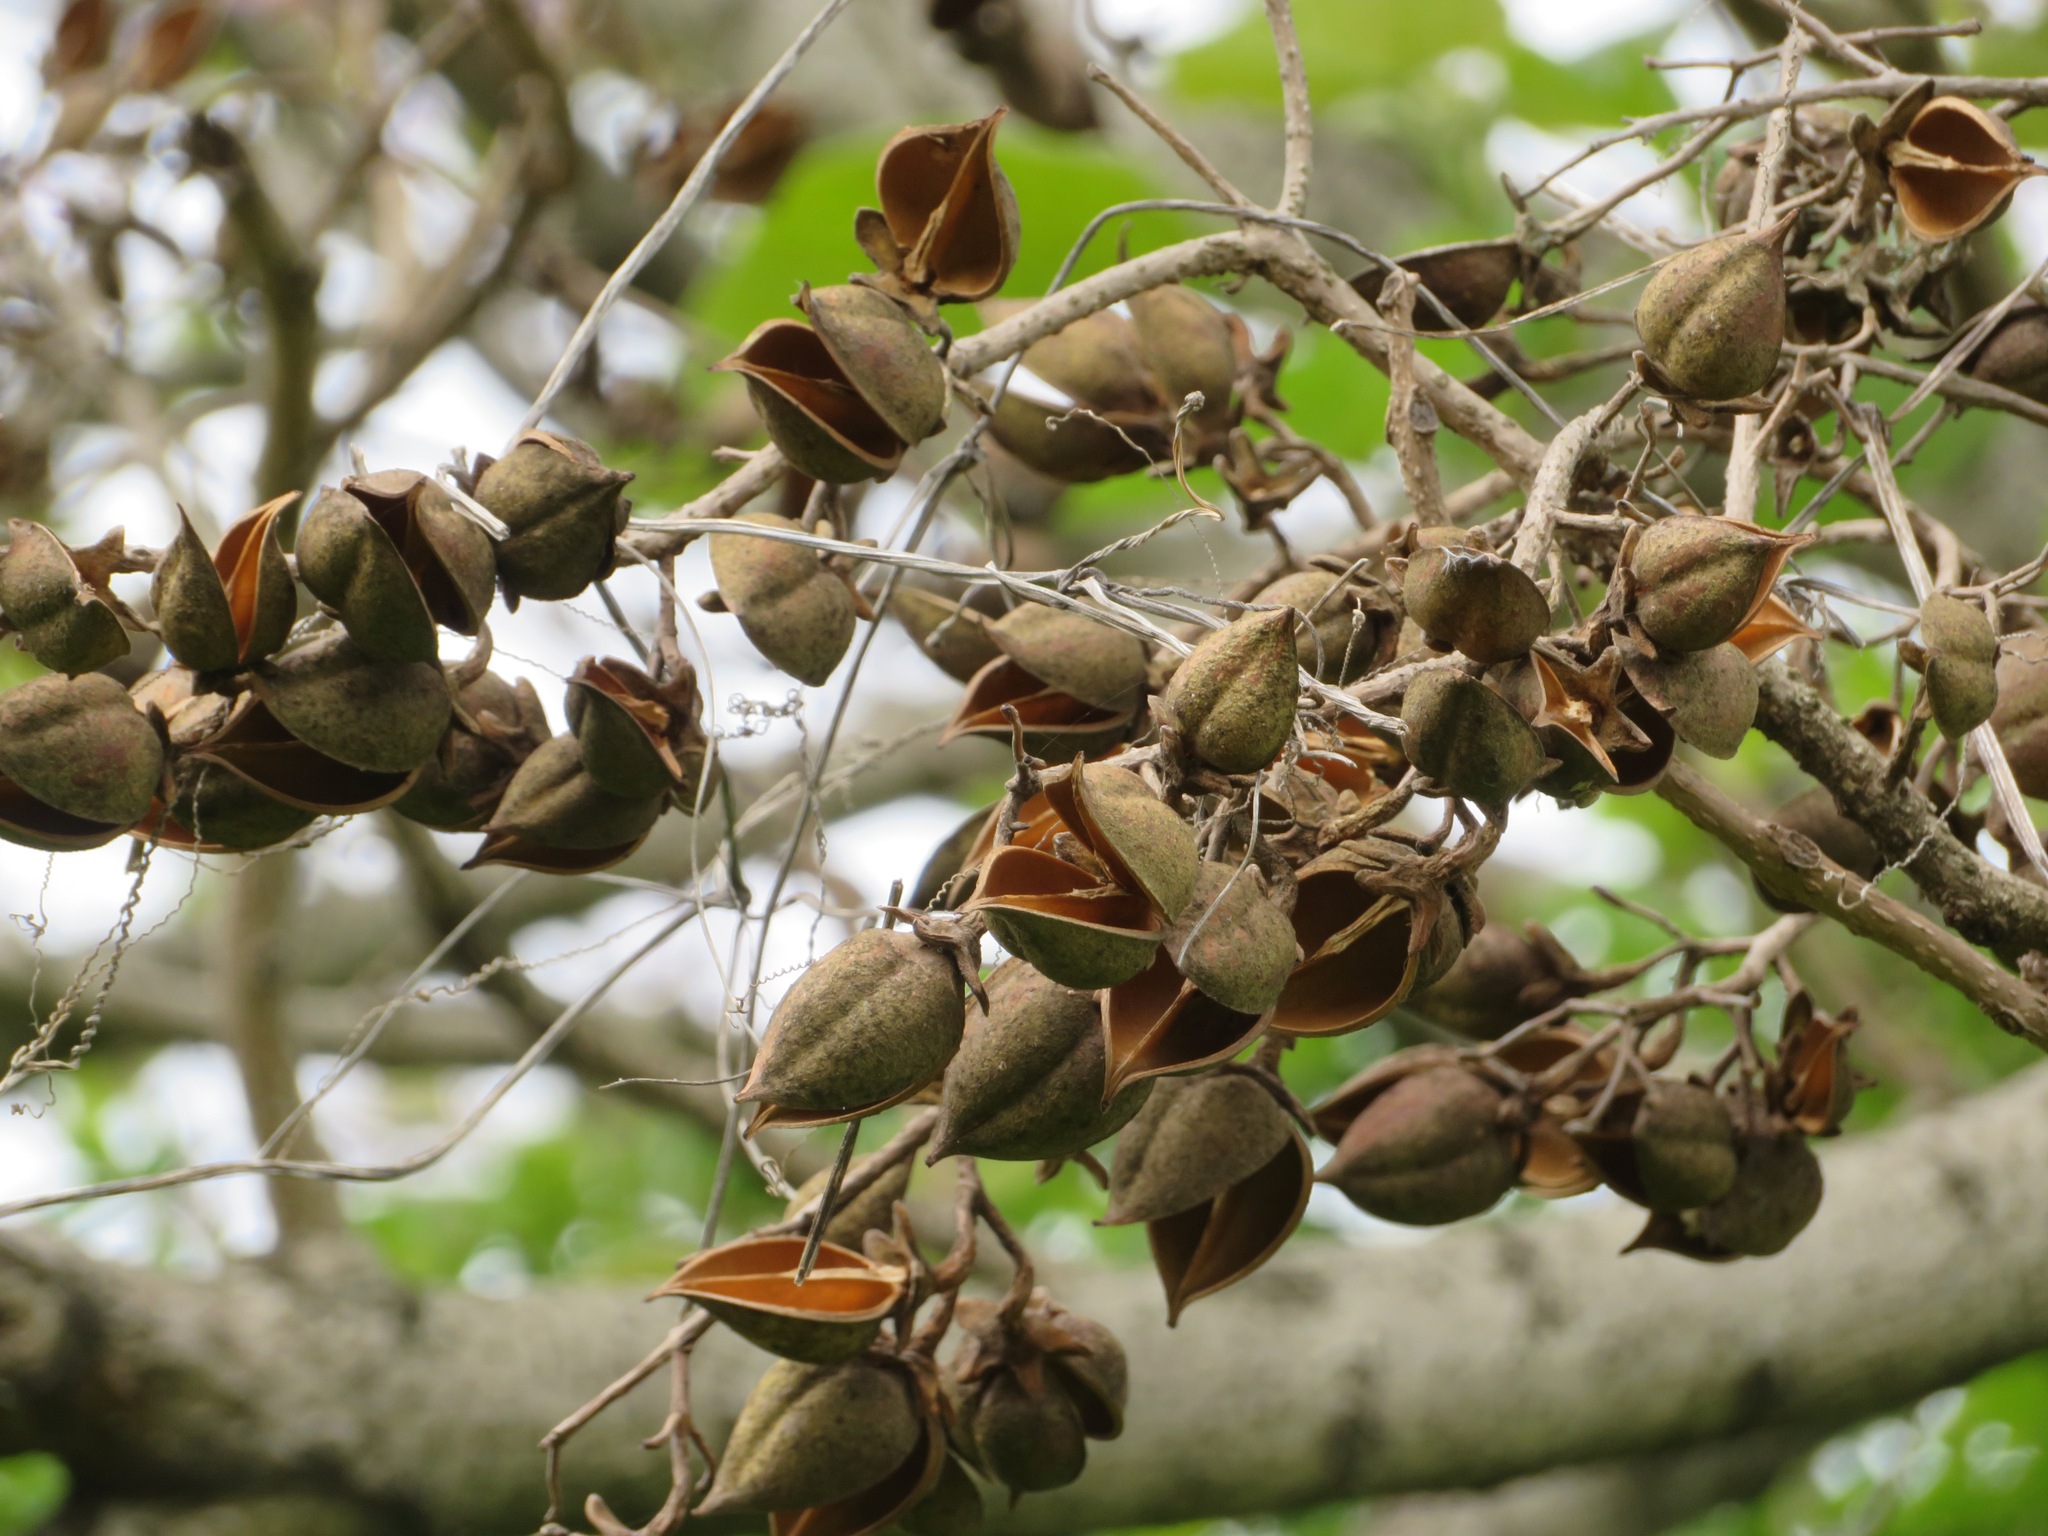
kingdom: Plantae
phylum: Tracheophyta
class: Magnoliopsida
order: Lamiales
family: Paulowniaceae
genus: Paulownia
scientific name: Paulownia tomentosa
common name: Foxglove-tree
